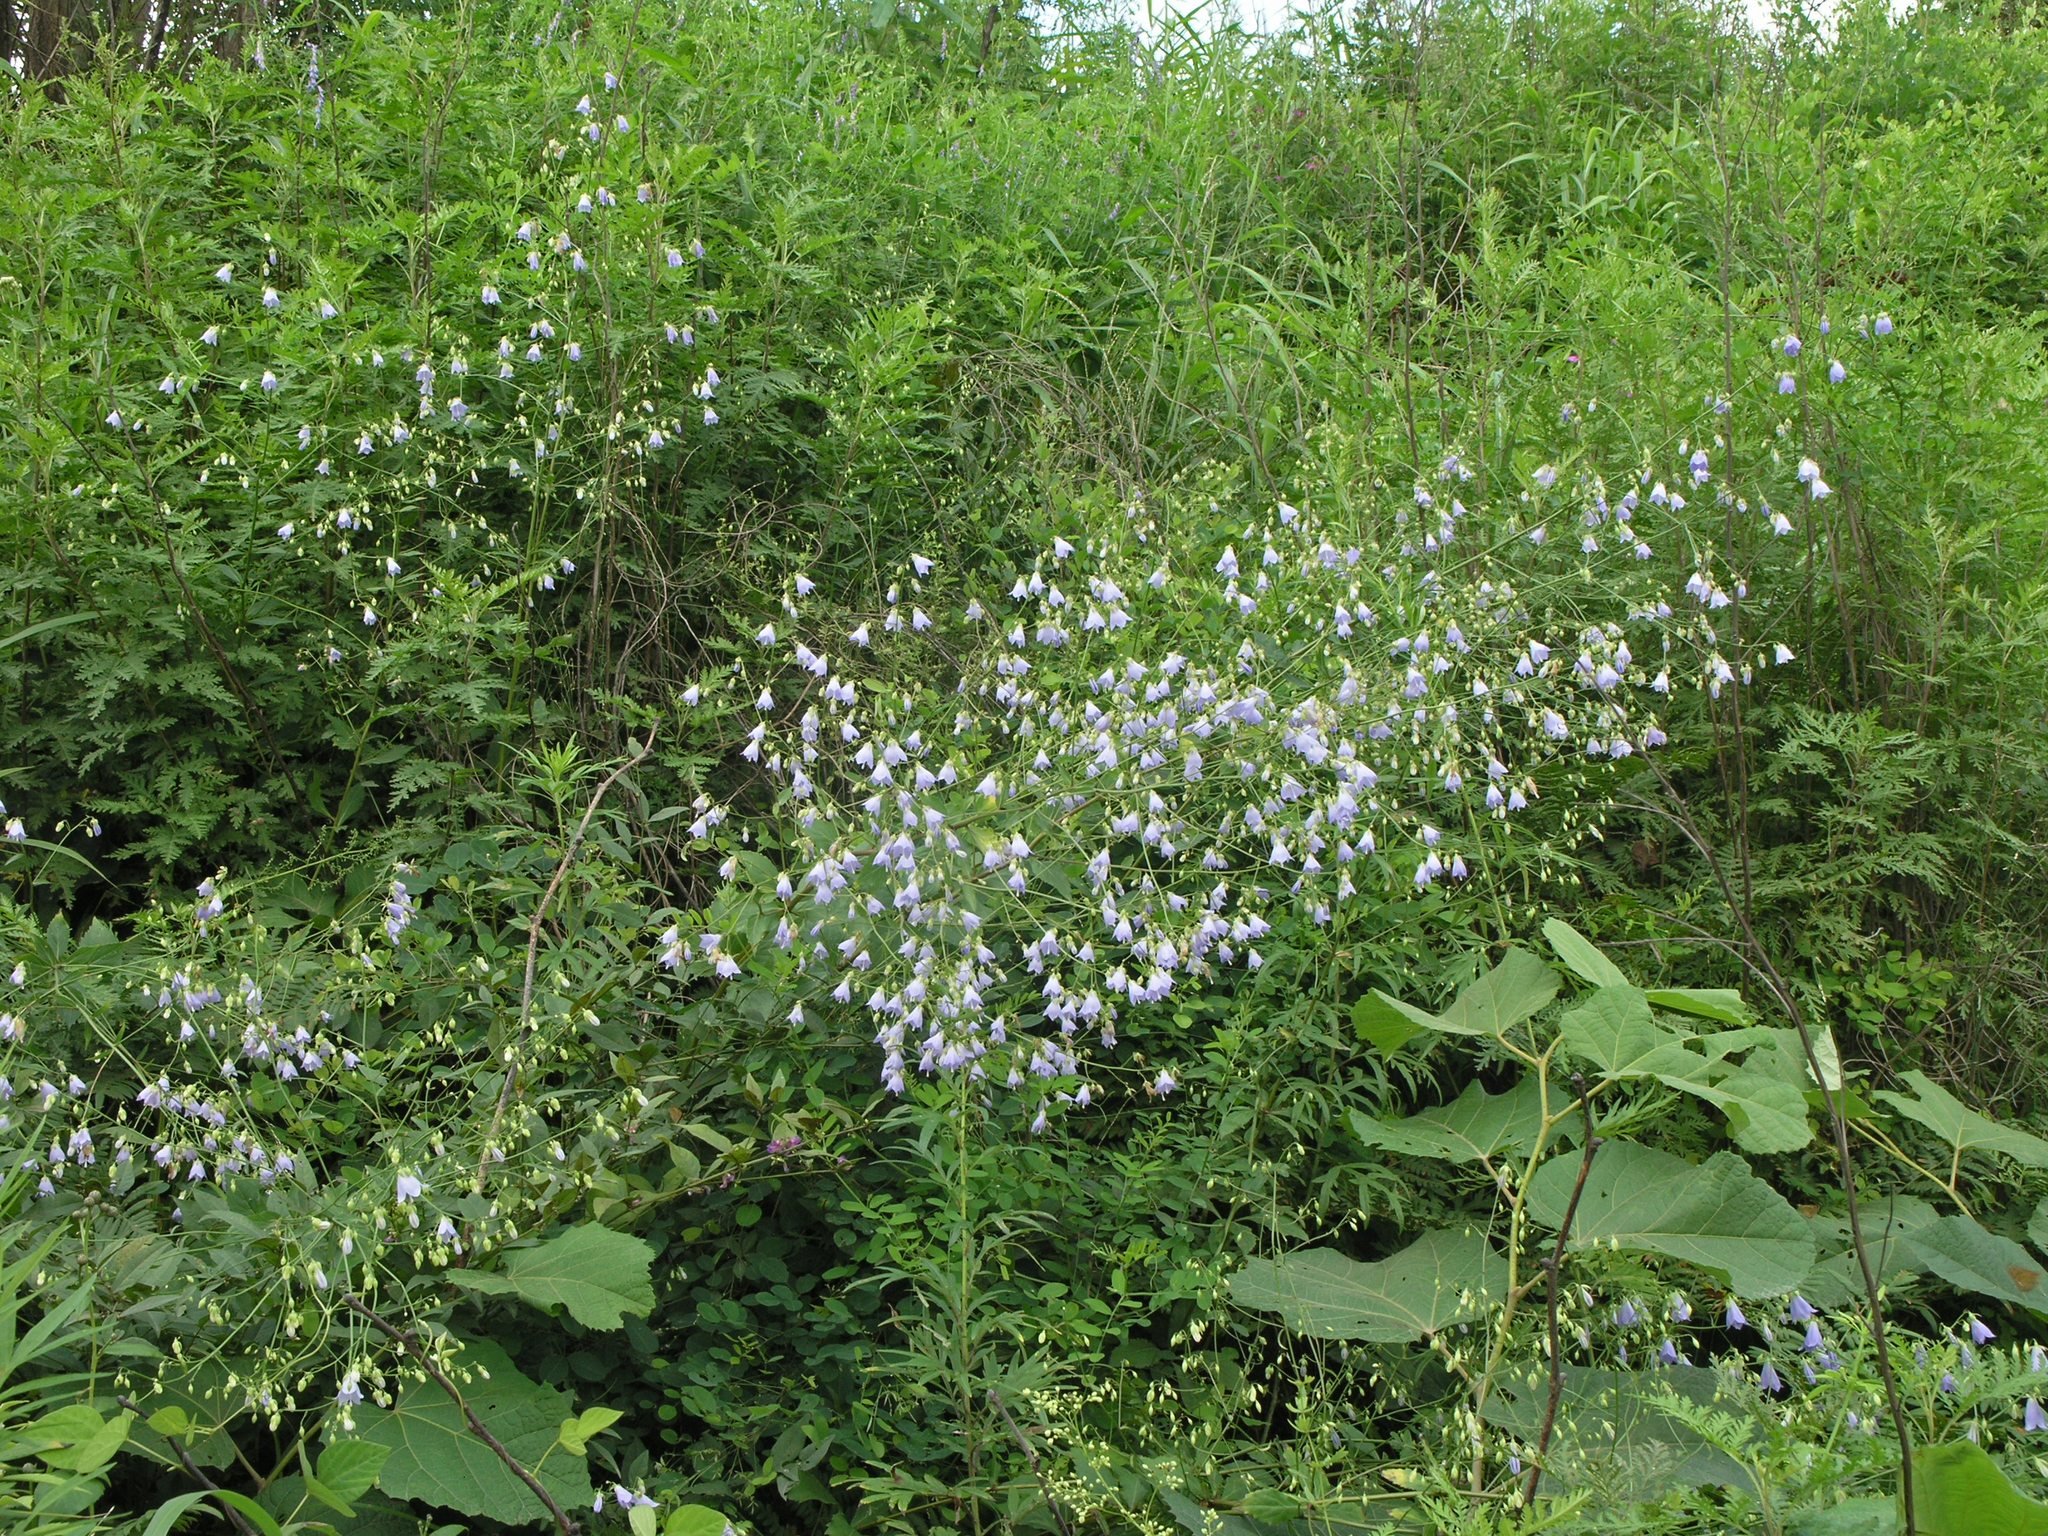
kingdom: Plantae
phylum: Tracheophyta
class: Magnoliopsida
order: Asterales
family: Campanulaceae
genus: Adenophora
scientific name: Adenophora divaricata
